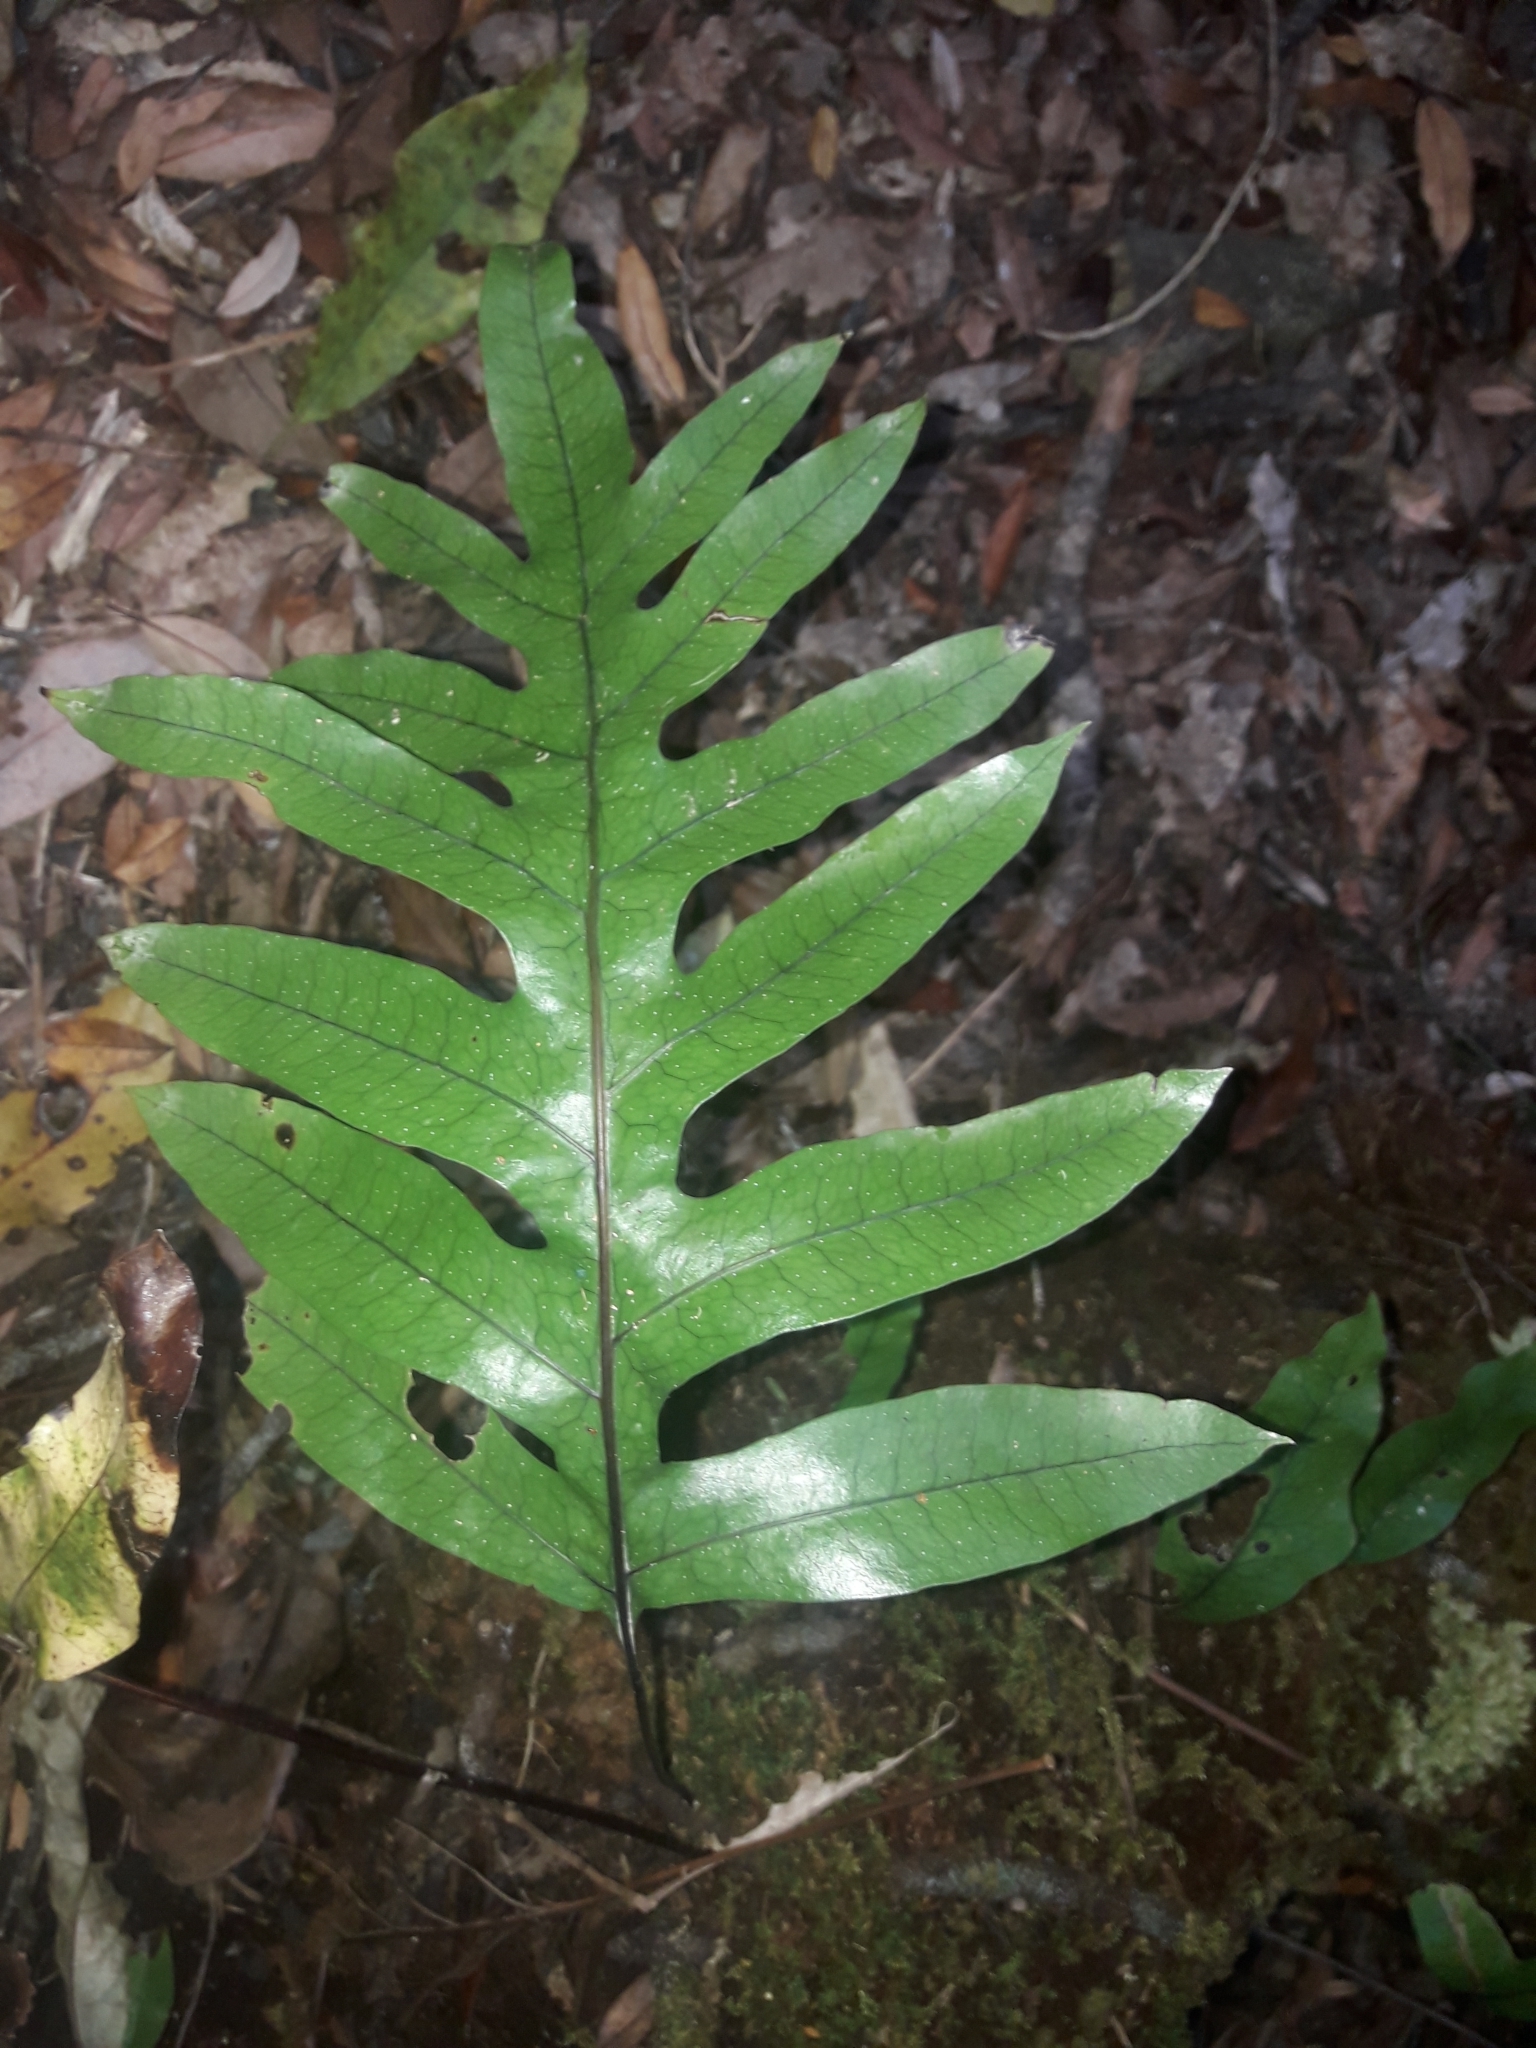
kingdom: Plantae
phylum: Tracheophyta
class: Polypodiopsida
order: Polypodiales
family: Polypodiaceae
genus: Lecanopteris
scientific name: Lecanopteris pustulata
